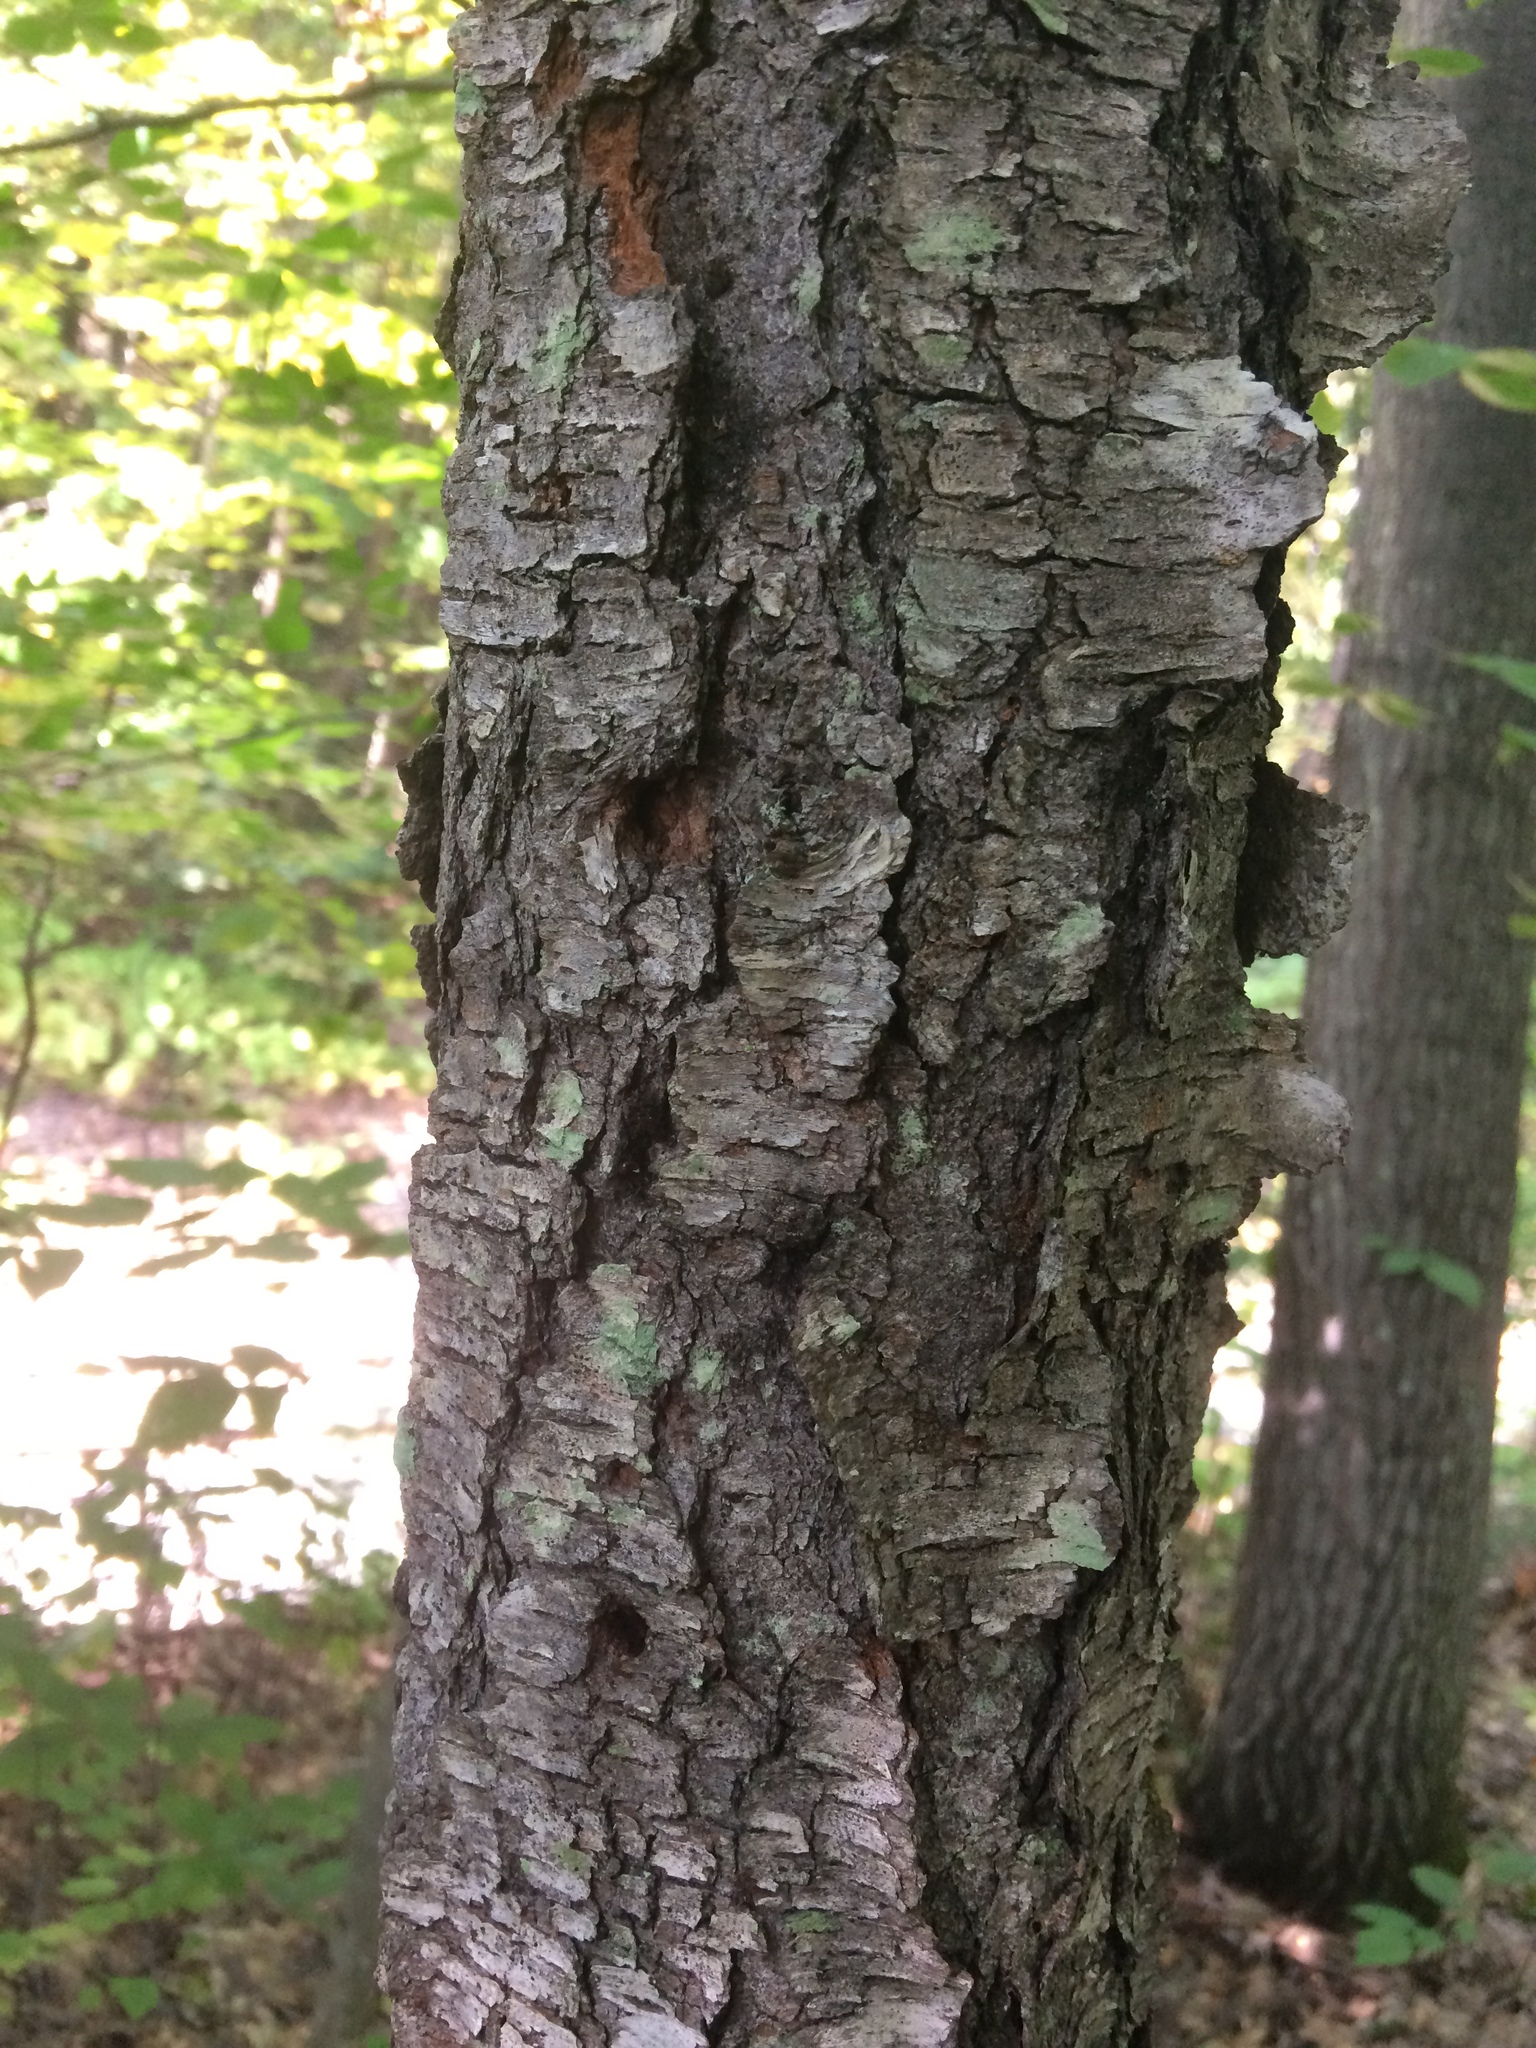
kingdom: Plantae
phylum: Tracheophyta
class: Magnoliopsida
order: Rosales
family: Rosaceae
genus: Prunus
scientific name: Prunus serotina
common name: Black cherry
